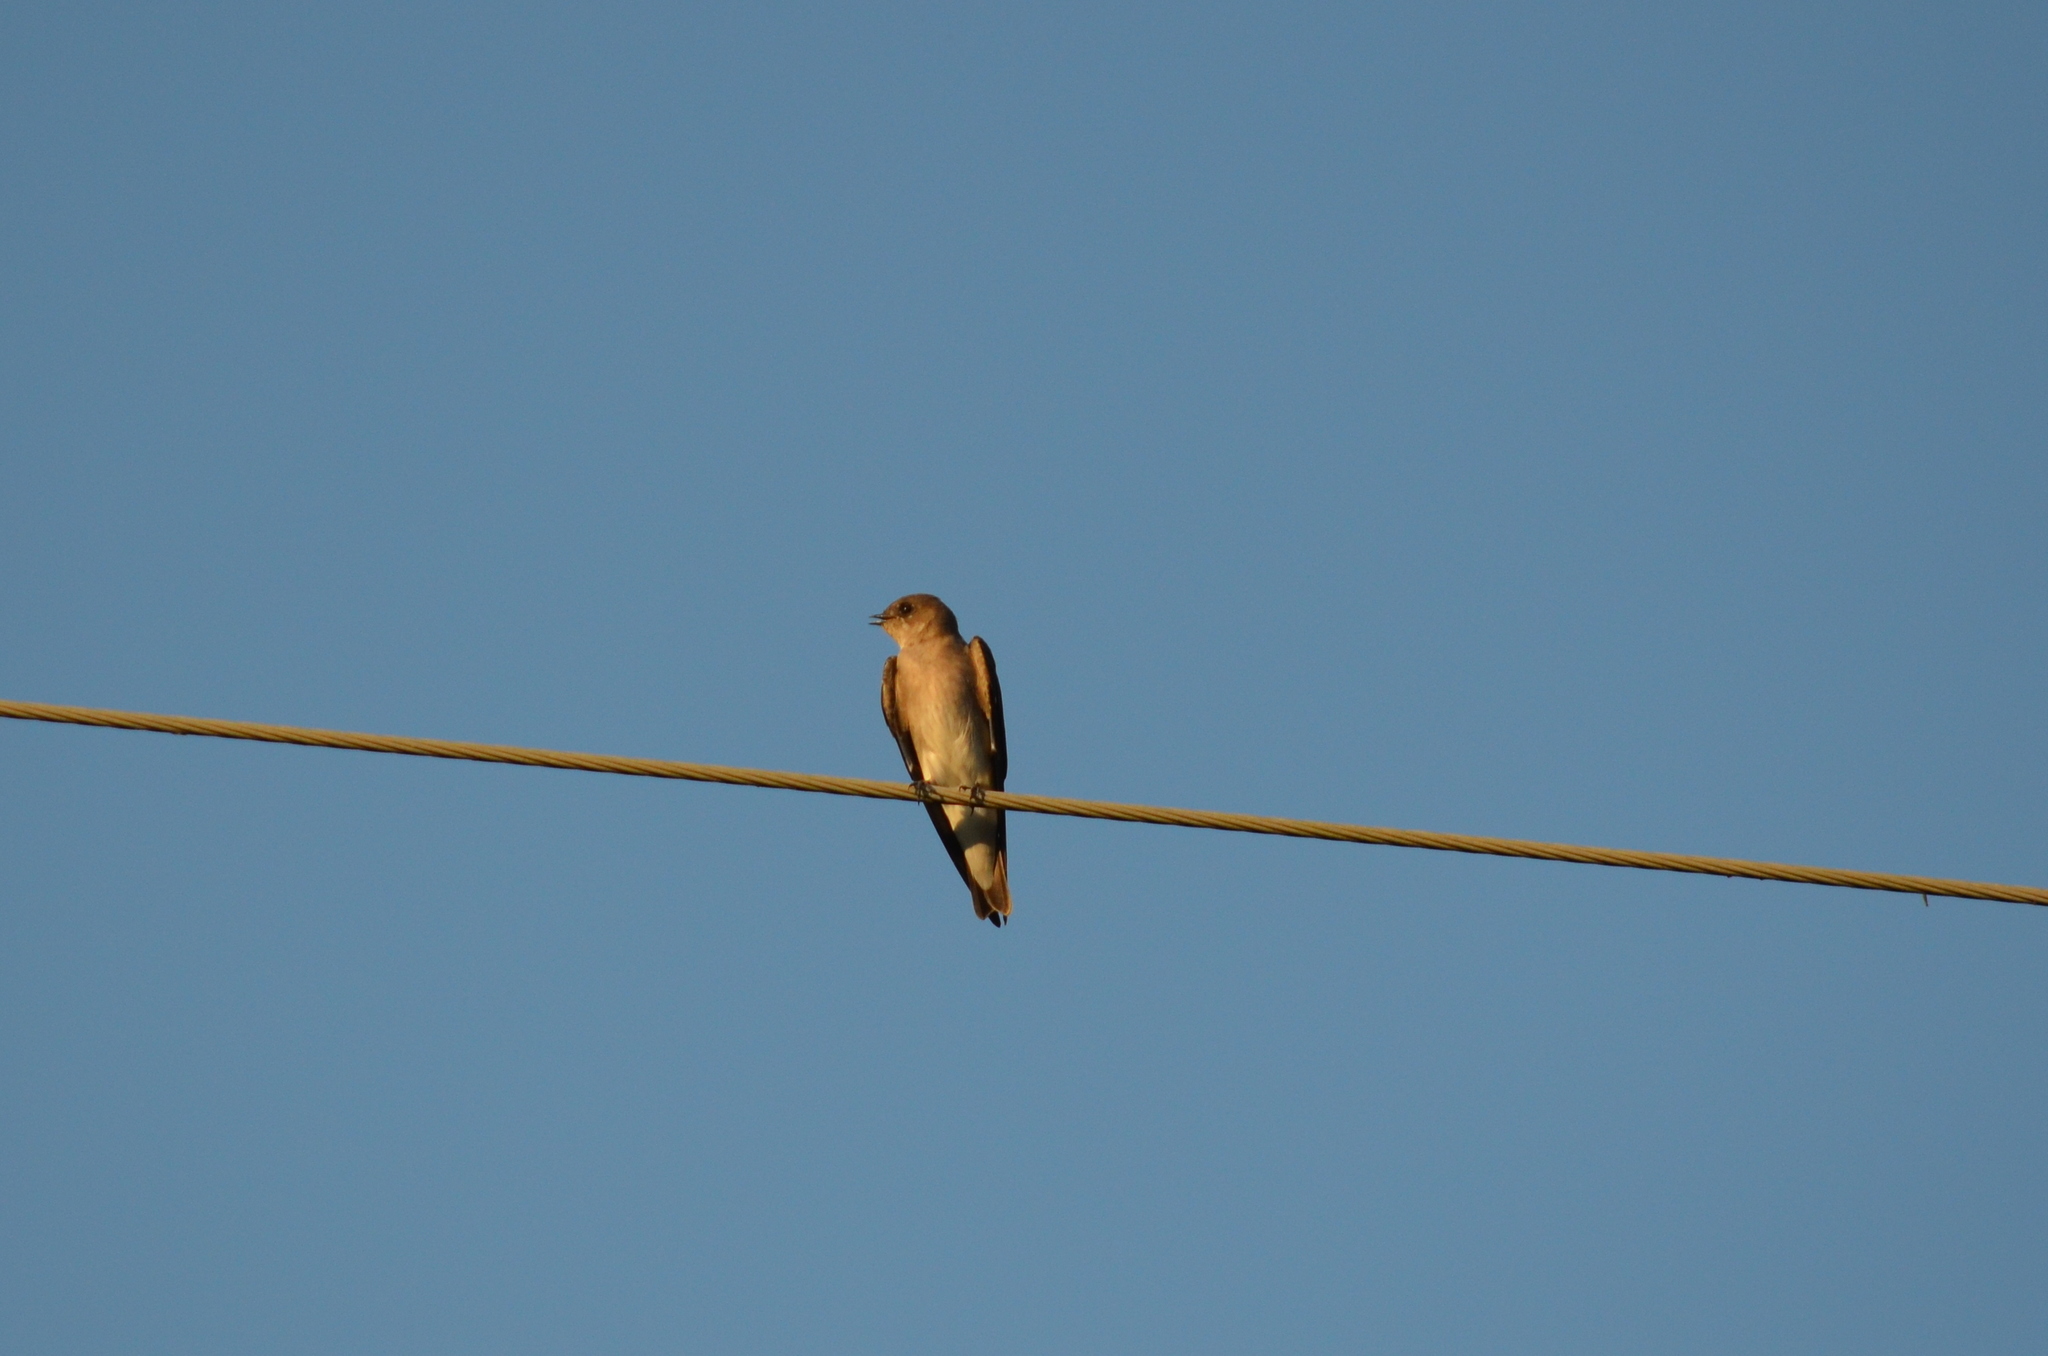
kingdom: Animalia
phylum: Chordata
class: Aves
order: Passeriformes
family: Hirundinidae
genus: Stelgidopteryx
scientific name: Stelgidopteryx serripennis
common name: Northern rough-winged swallow
